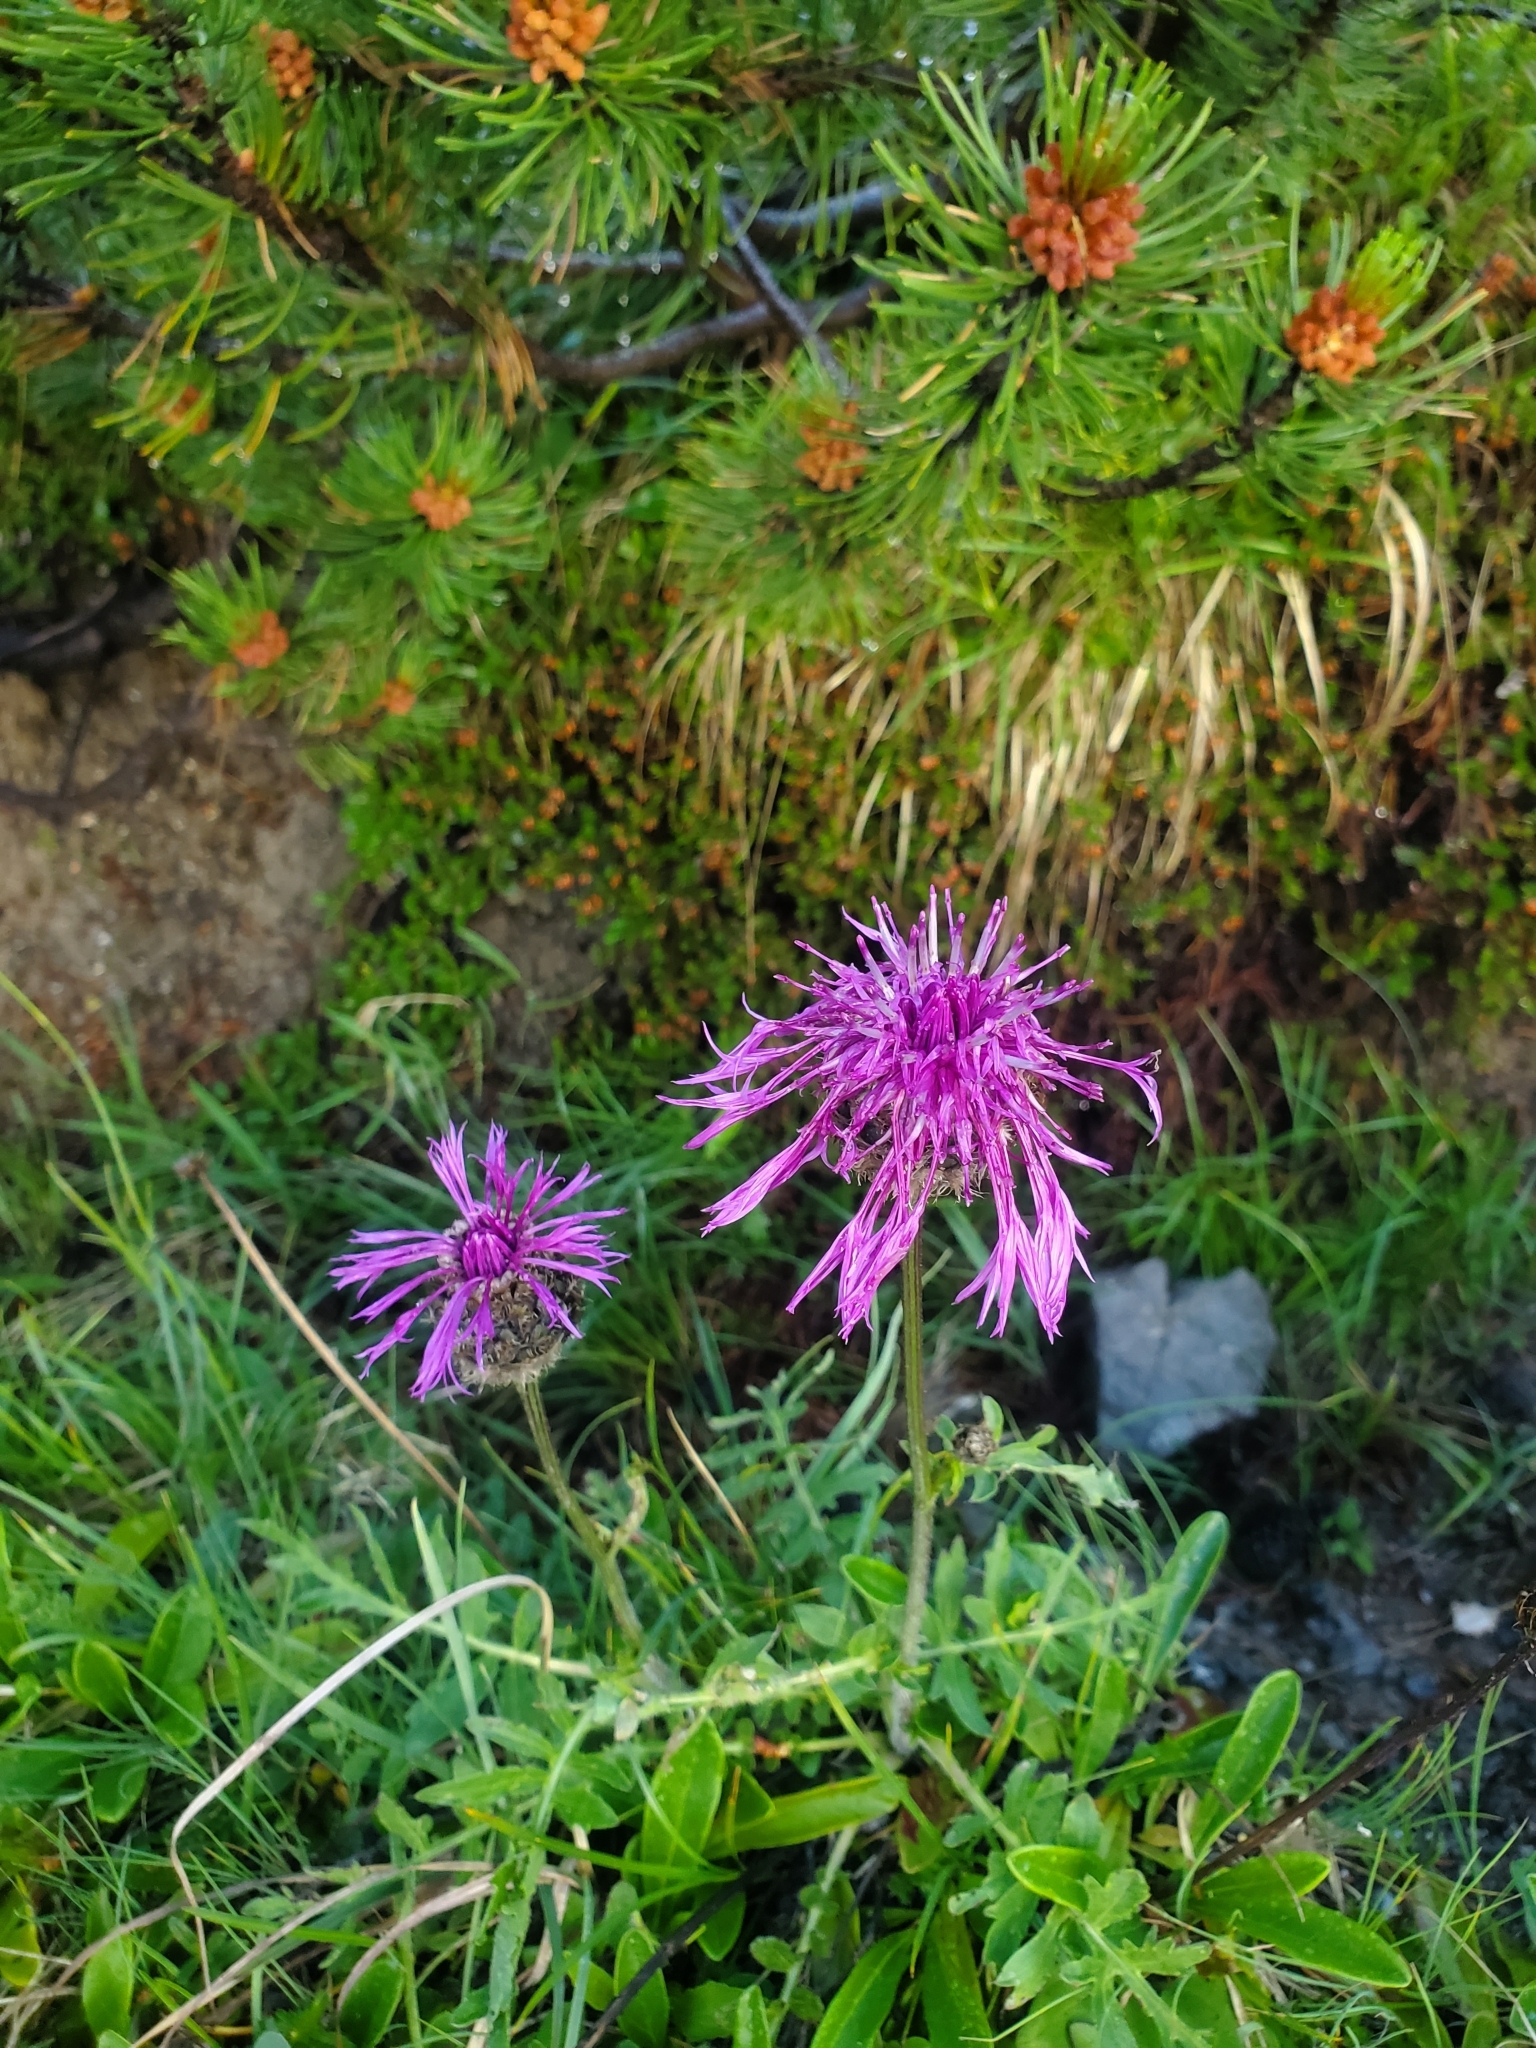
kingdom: Plantae
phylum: Tracheophyta
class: Magnoliopsida
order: Asterales
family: Asteraceae
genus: Centaurea
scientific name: Centaurea scabiosa
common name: Greater knapweed
